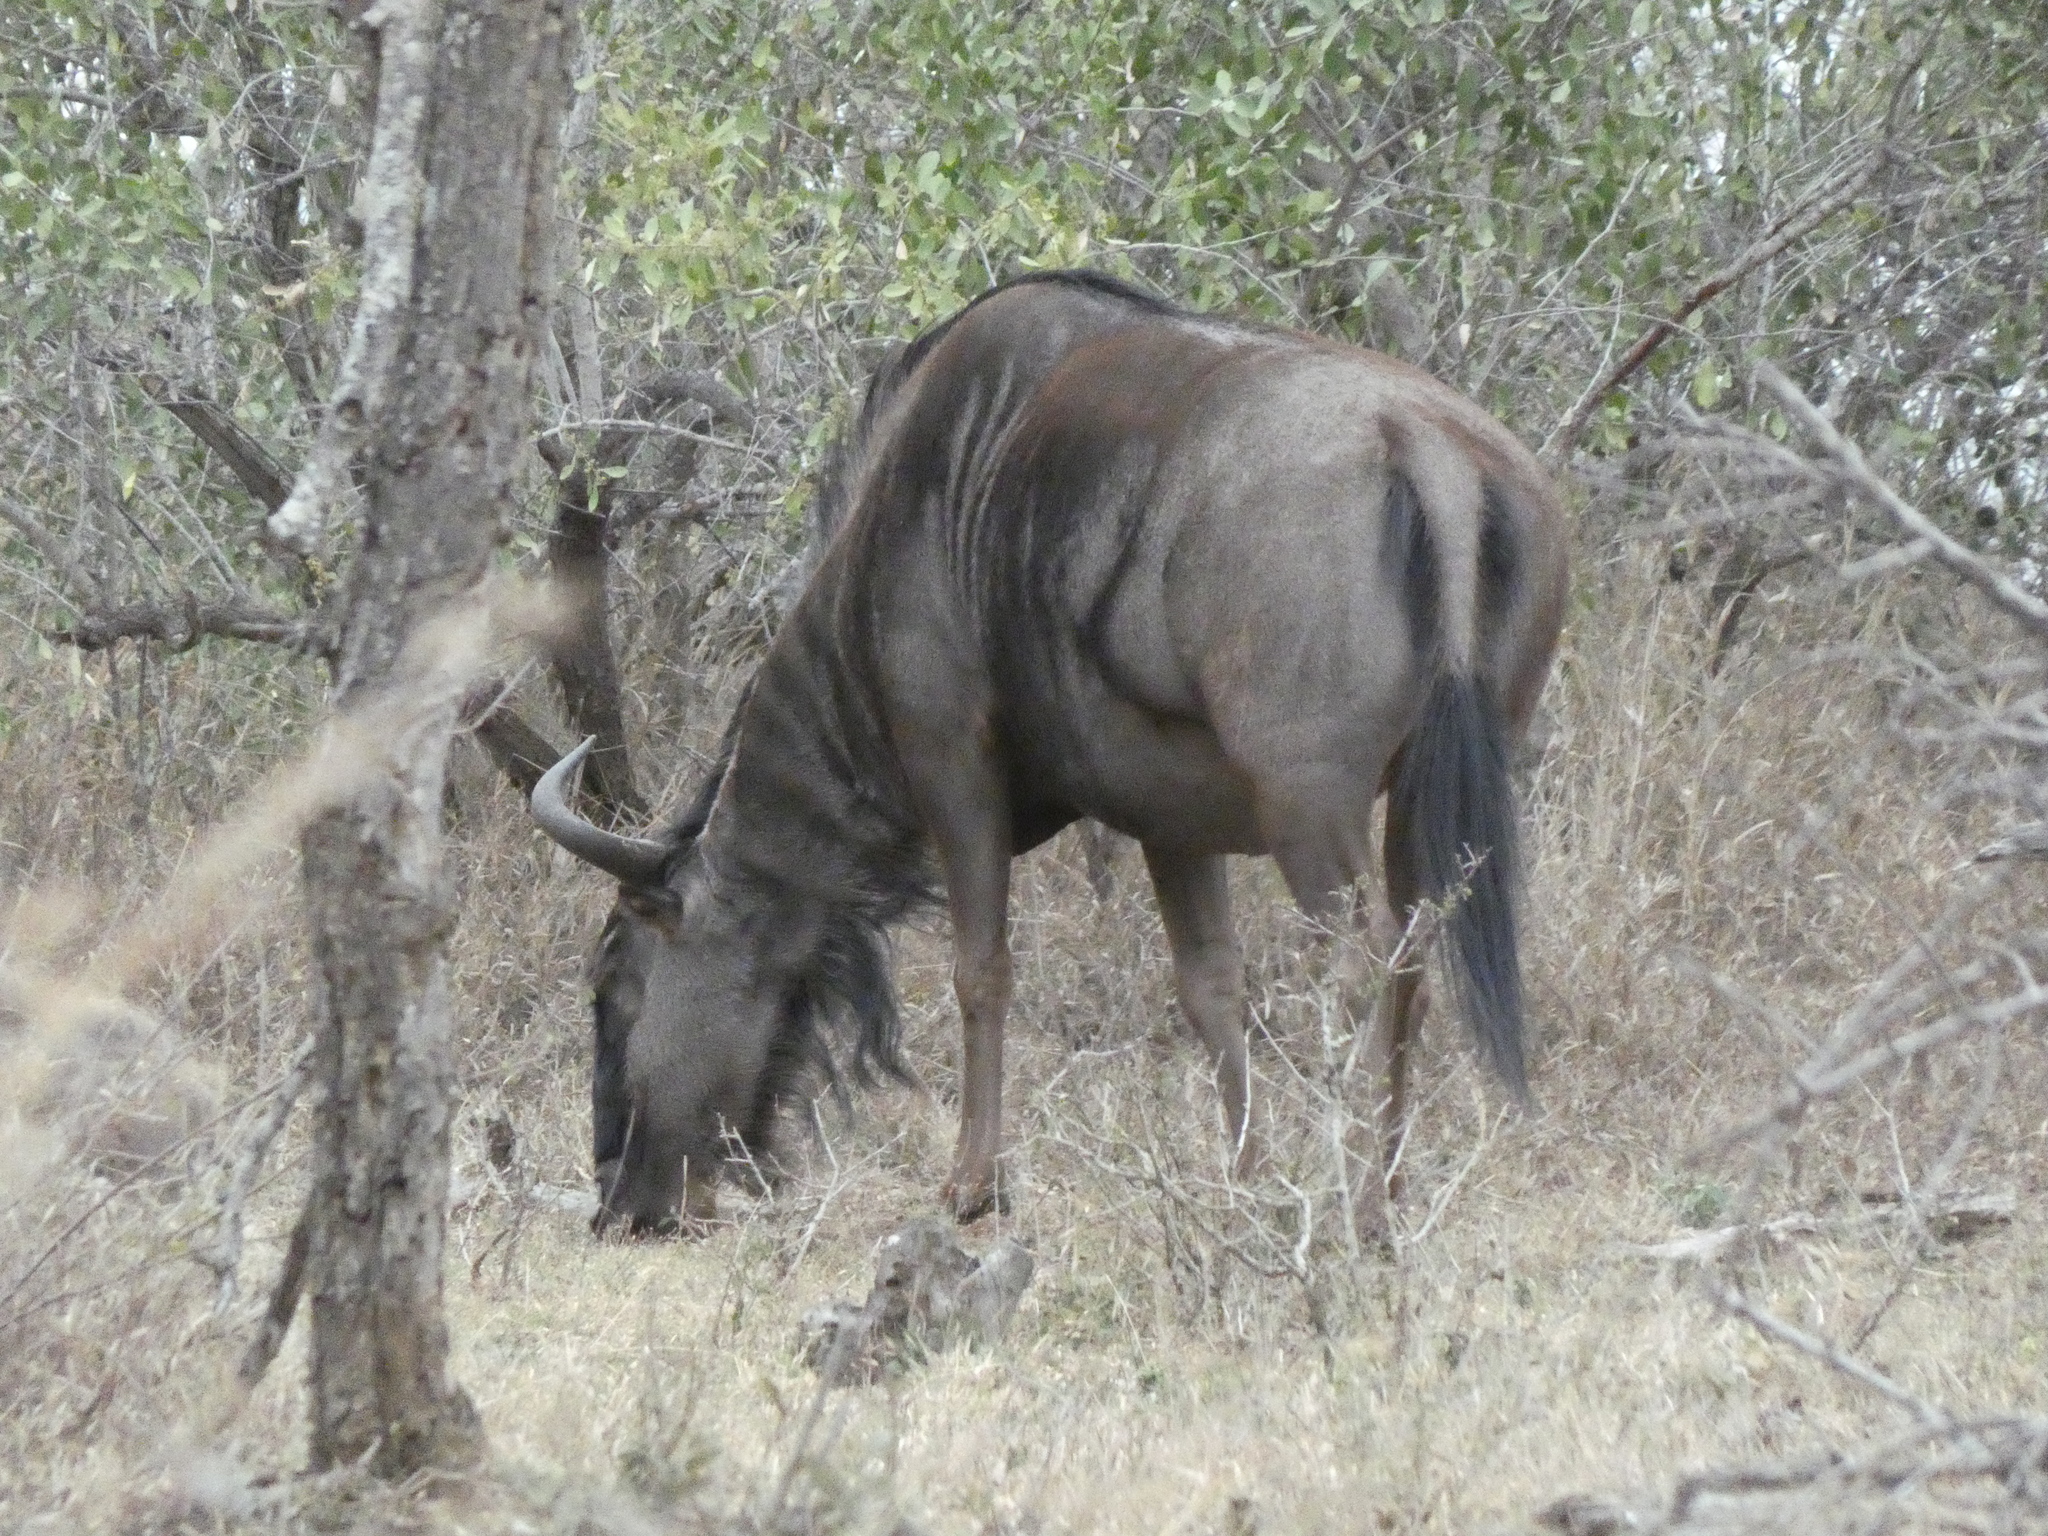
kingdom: Animalia
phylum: Chordata
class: Mammalia
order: Artiodactyla
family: Bovidae
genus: Connochaetes
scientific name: Connochaetes taurinus
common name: Blue wildebeest
